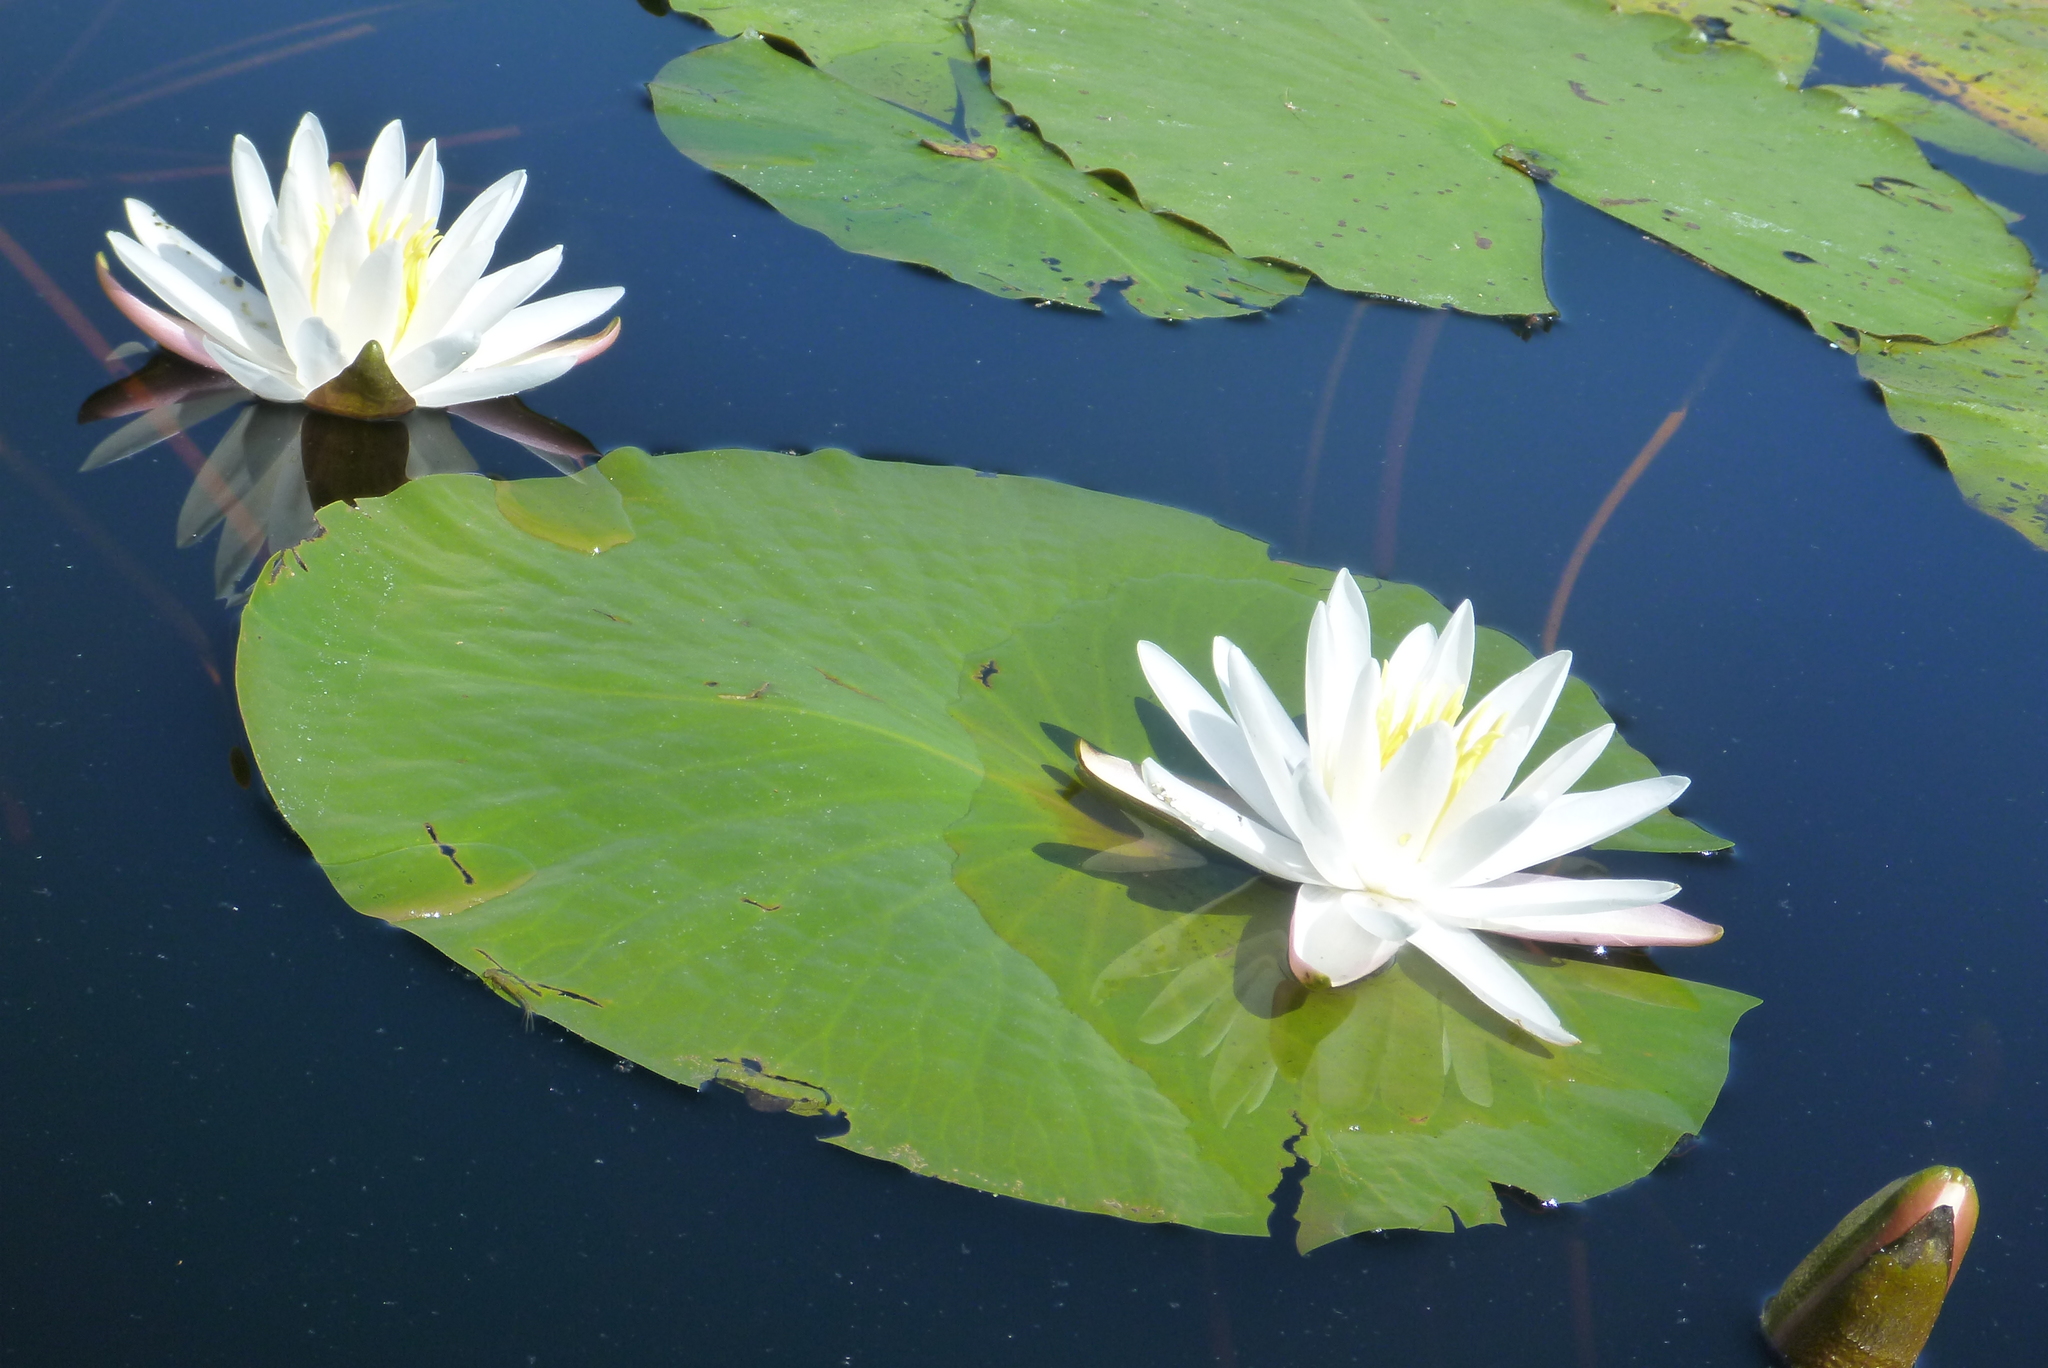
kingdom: Plantae
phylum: Tracheophyta
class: Magnoliopsida
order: Nymphaeales
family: Nymphaeaceae
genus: Nymphaea
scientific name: Nymphaea odorata
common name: Fragrant water-lily
